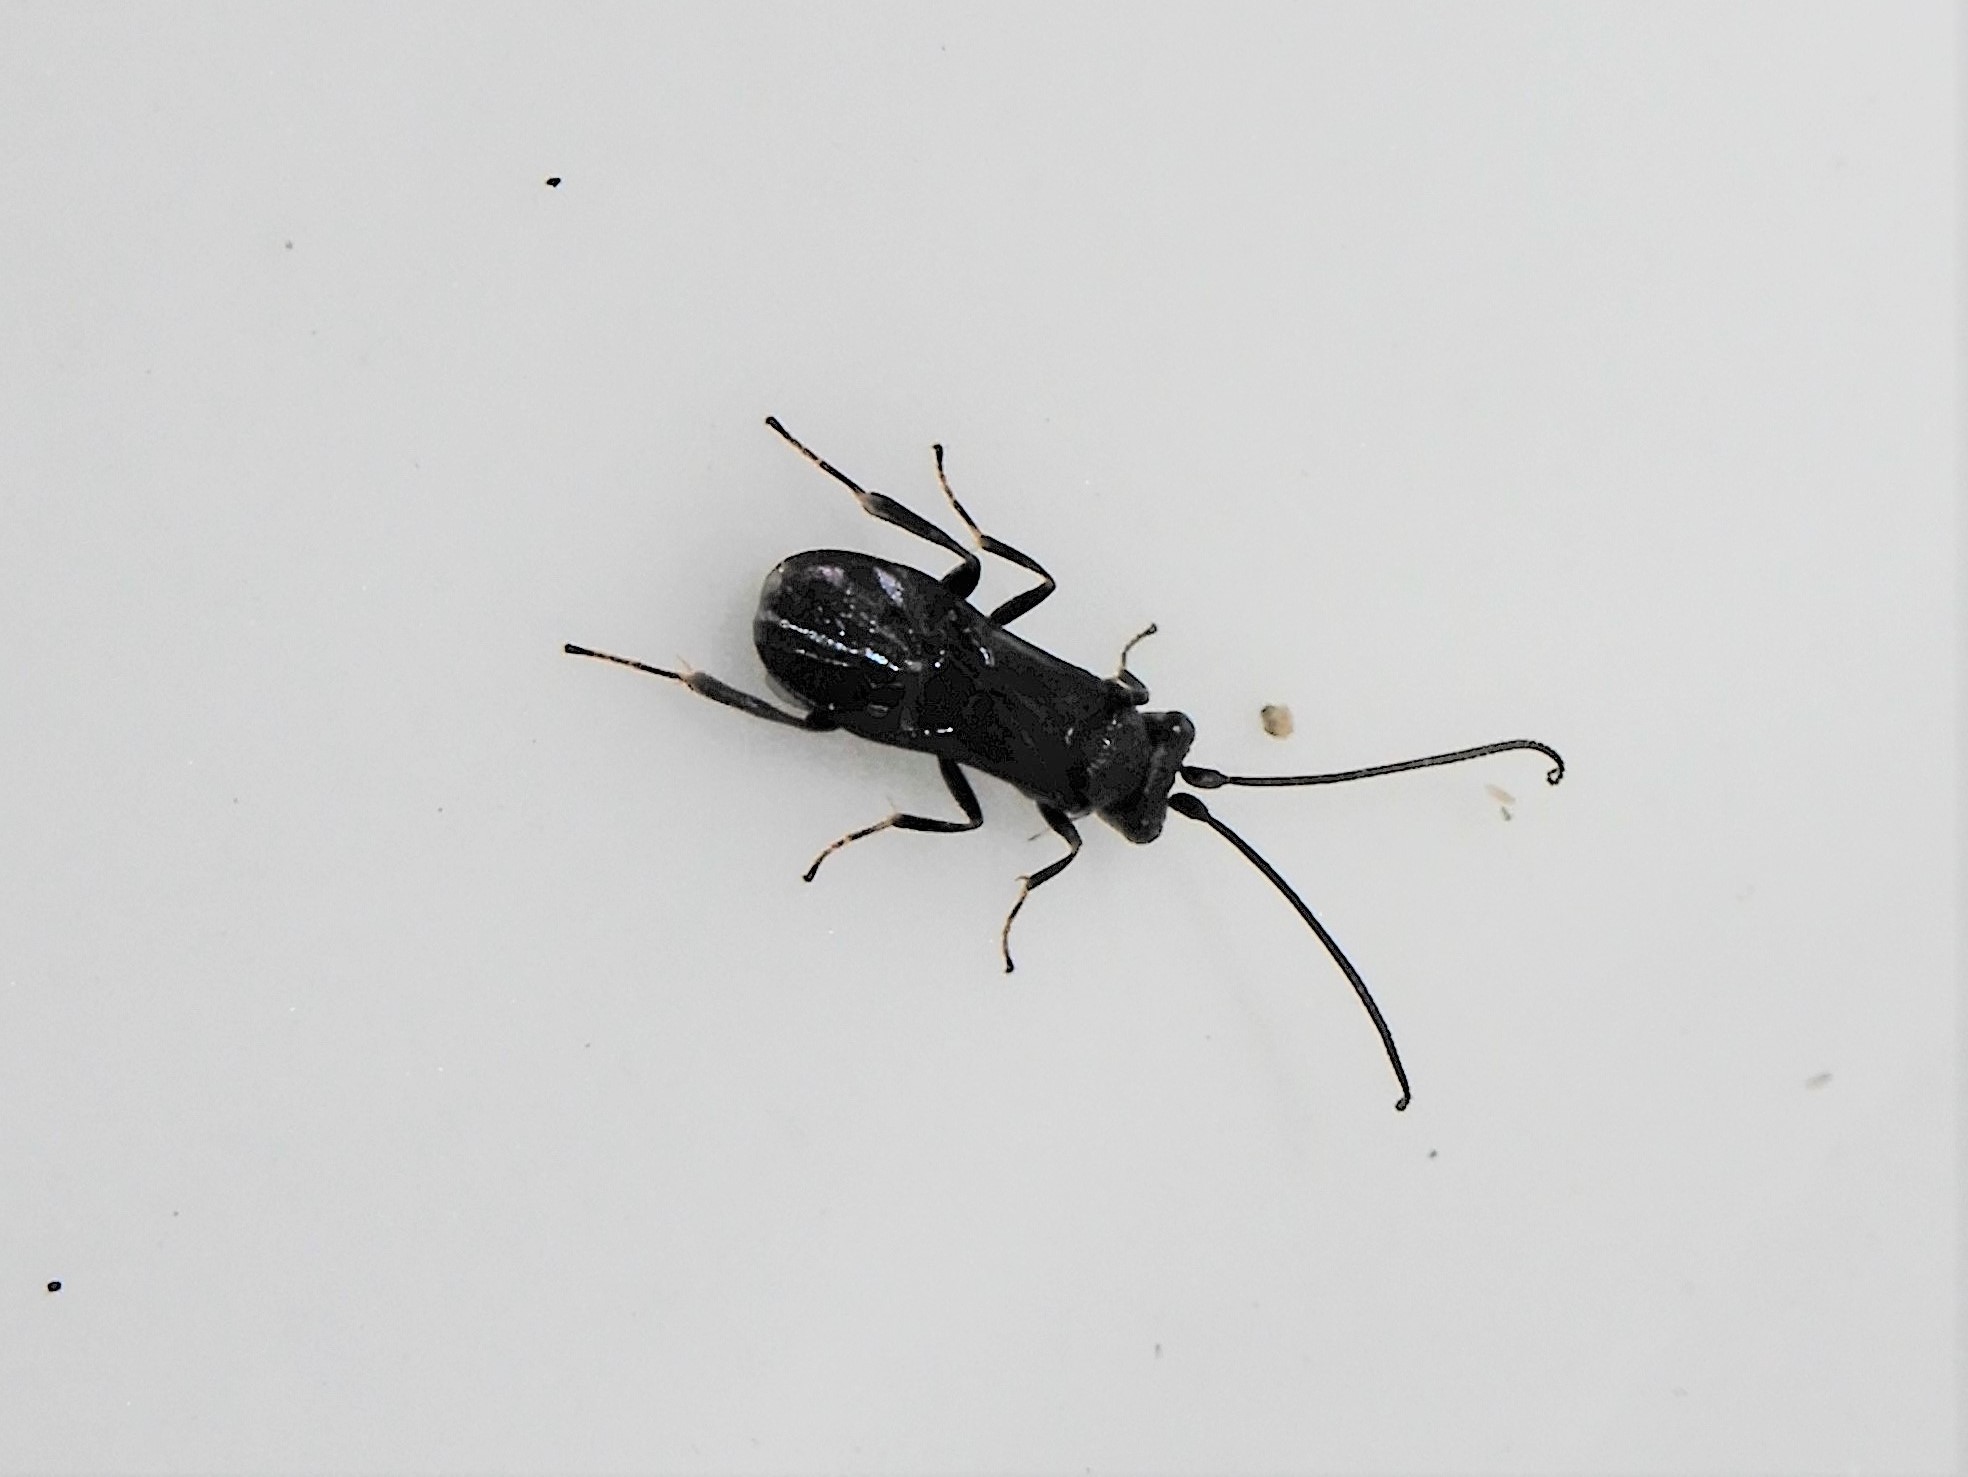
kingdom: Animalia
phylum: Arthropoda
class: Insecta
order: Hymenoptera
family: Braconidae
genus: Ascogaster
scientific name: Ascogaster crenulata
